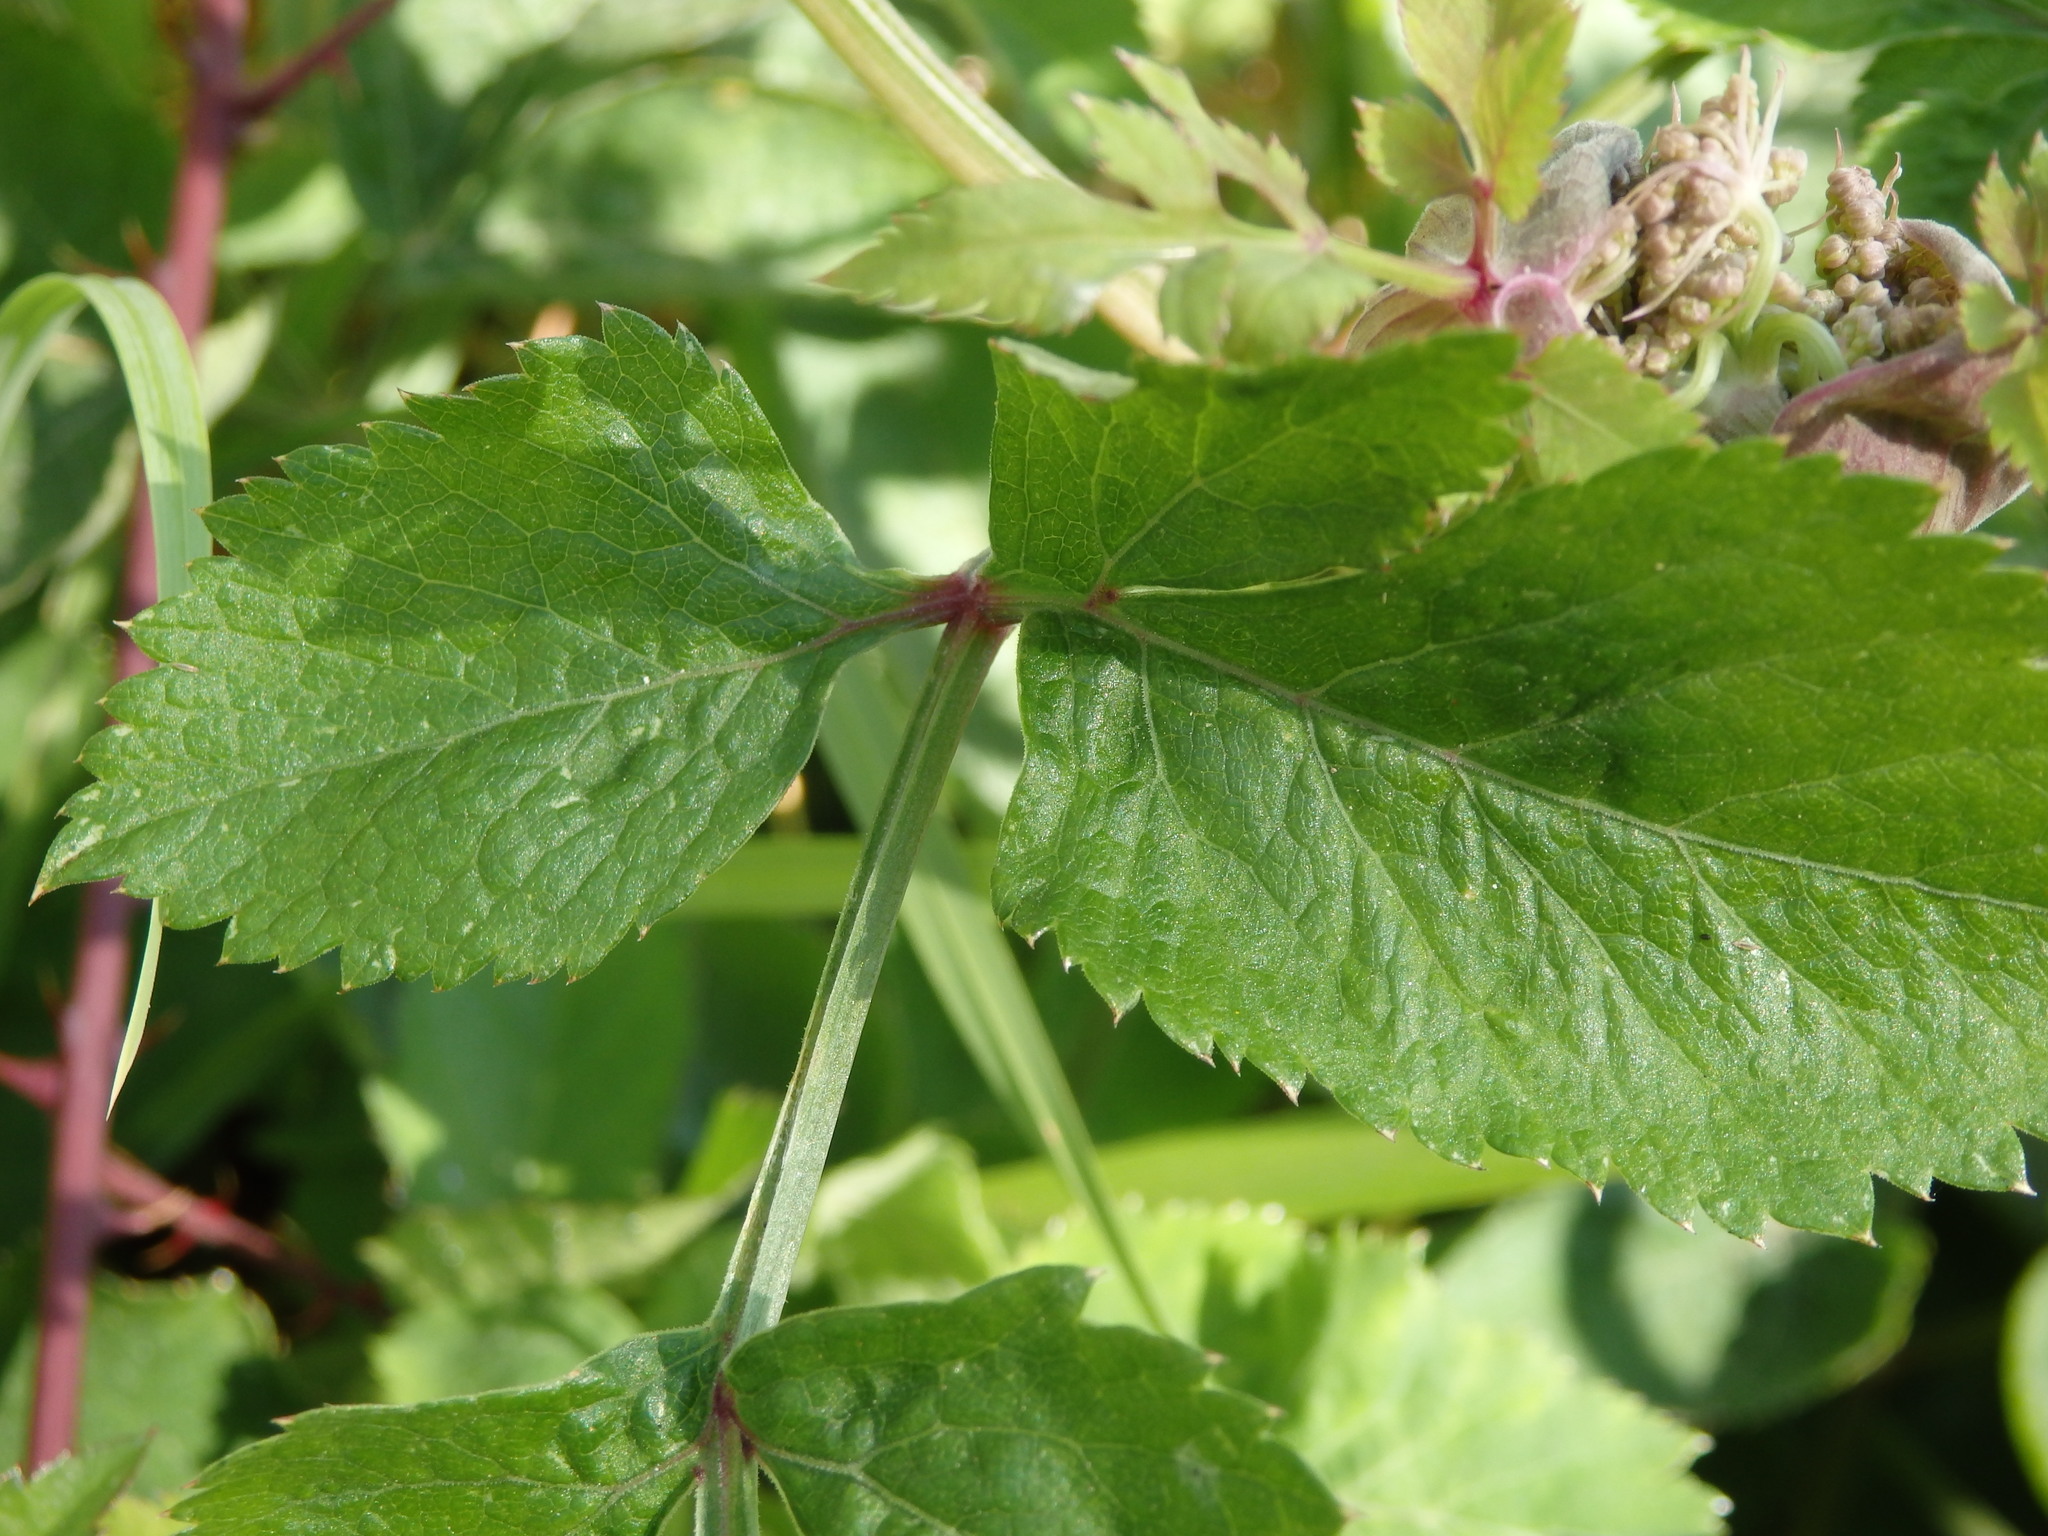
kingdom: Plantae
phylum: Tracheophyta
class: Magnoliopsida
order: Apiales
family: Apiaceae
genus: Angelica
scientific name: Angelica sylvestris
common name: Wild angelica
